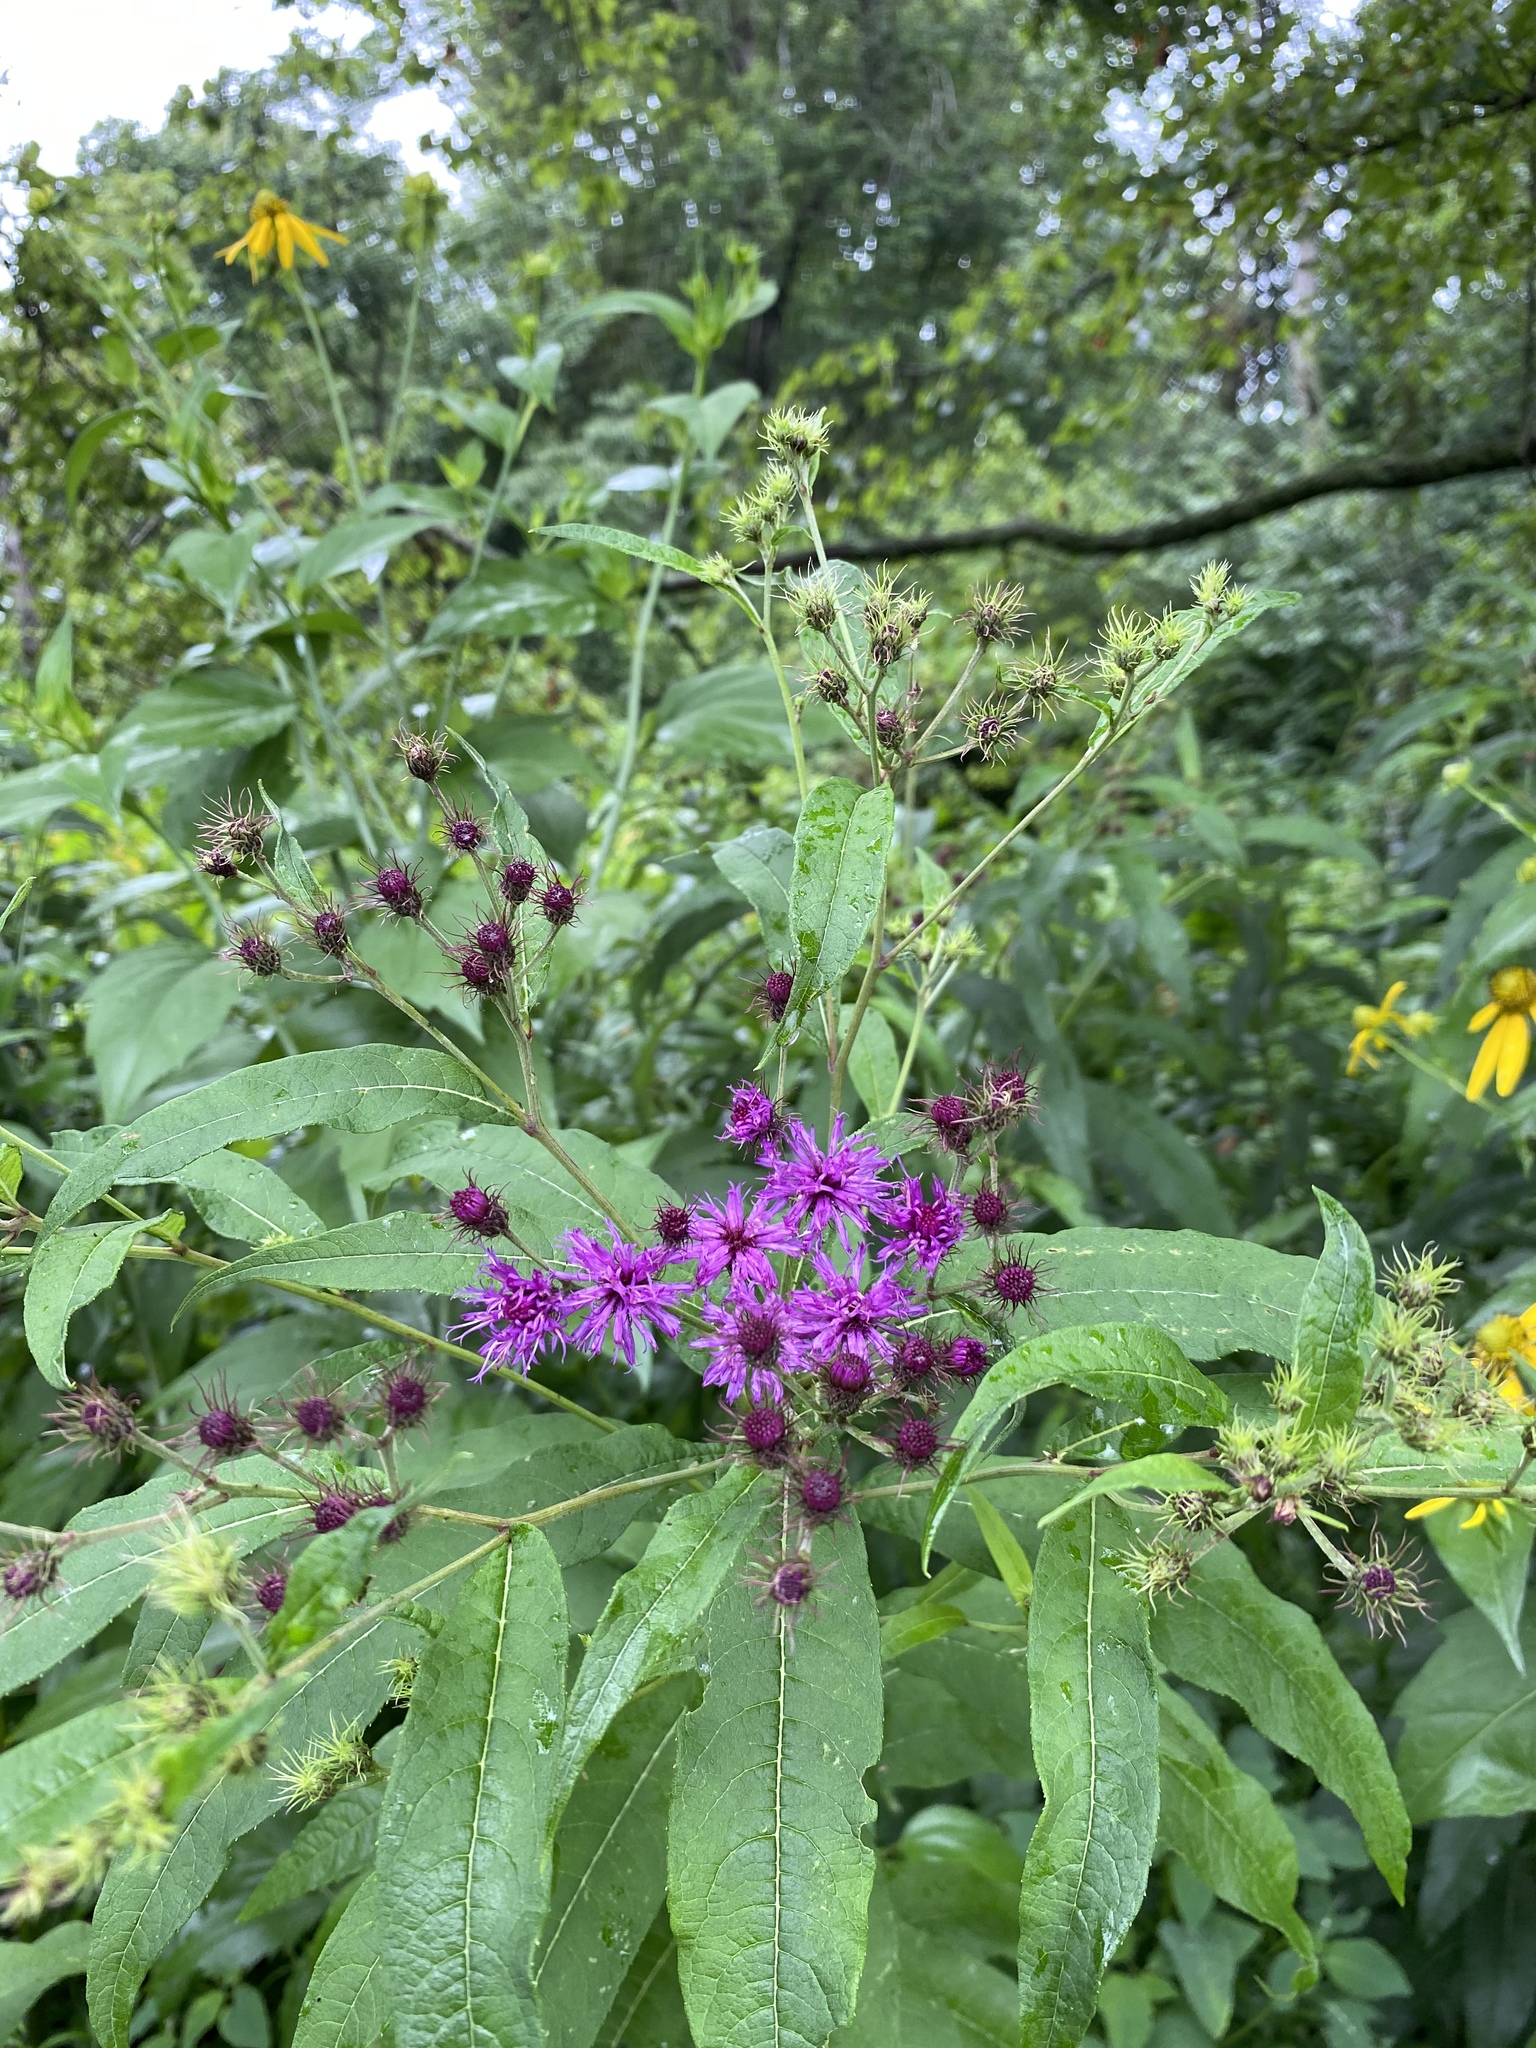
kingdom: Plantae
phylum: Tracheophyta
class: Magnoliopsida
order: Asterales
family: Asteraceae
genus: Vernonia
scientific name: Vernonia noveboracensis
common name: New york ironweed
